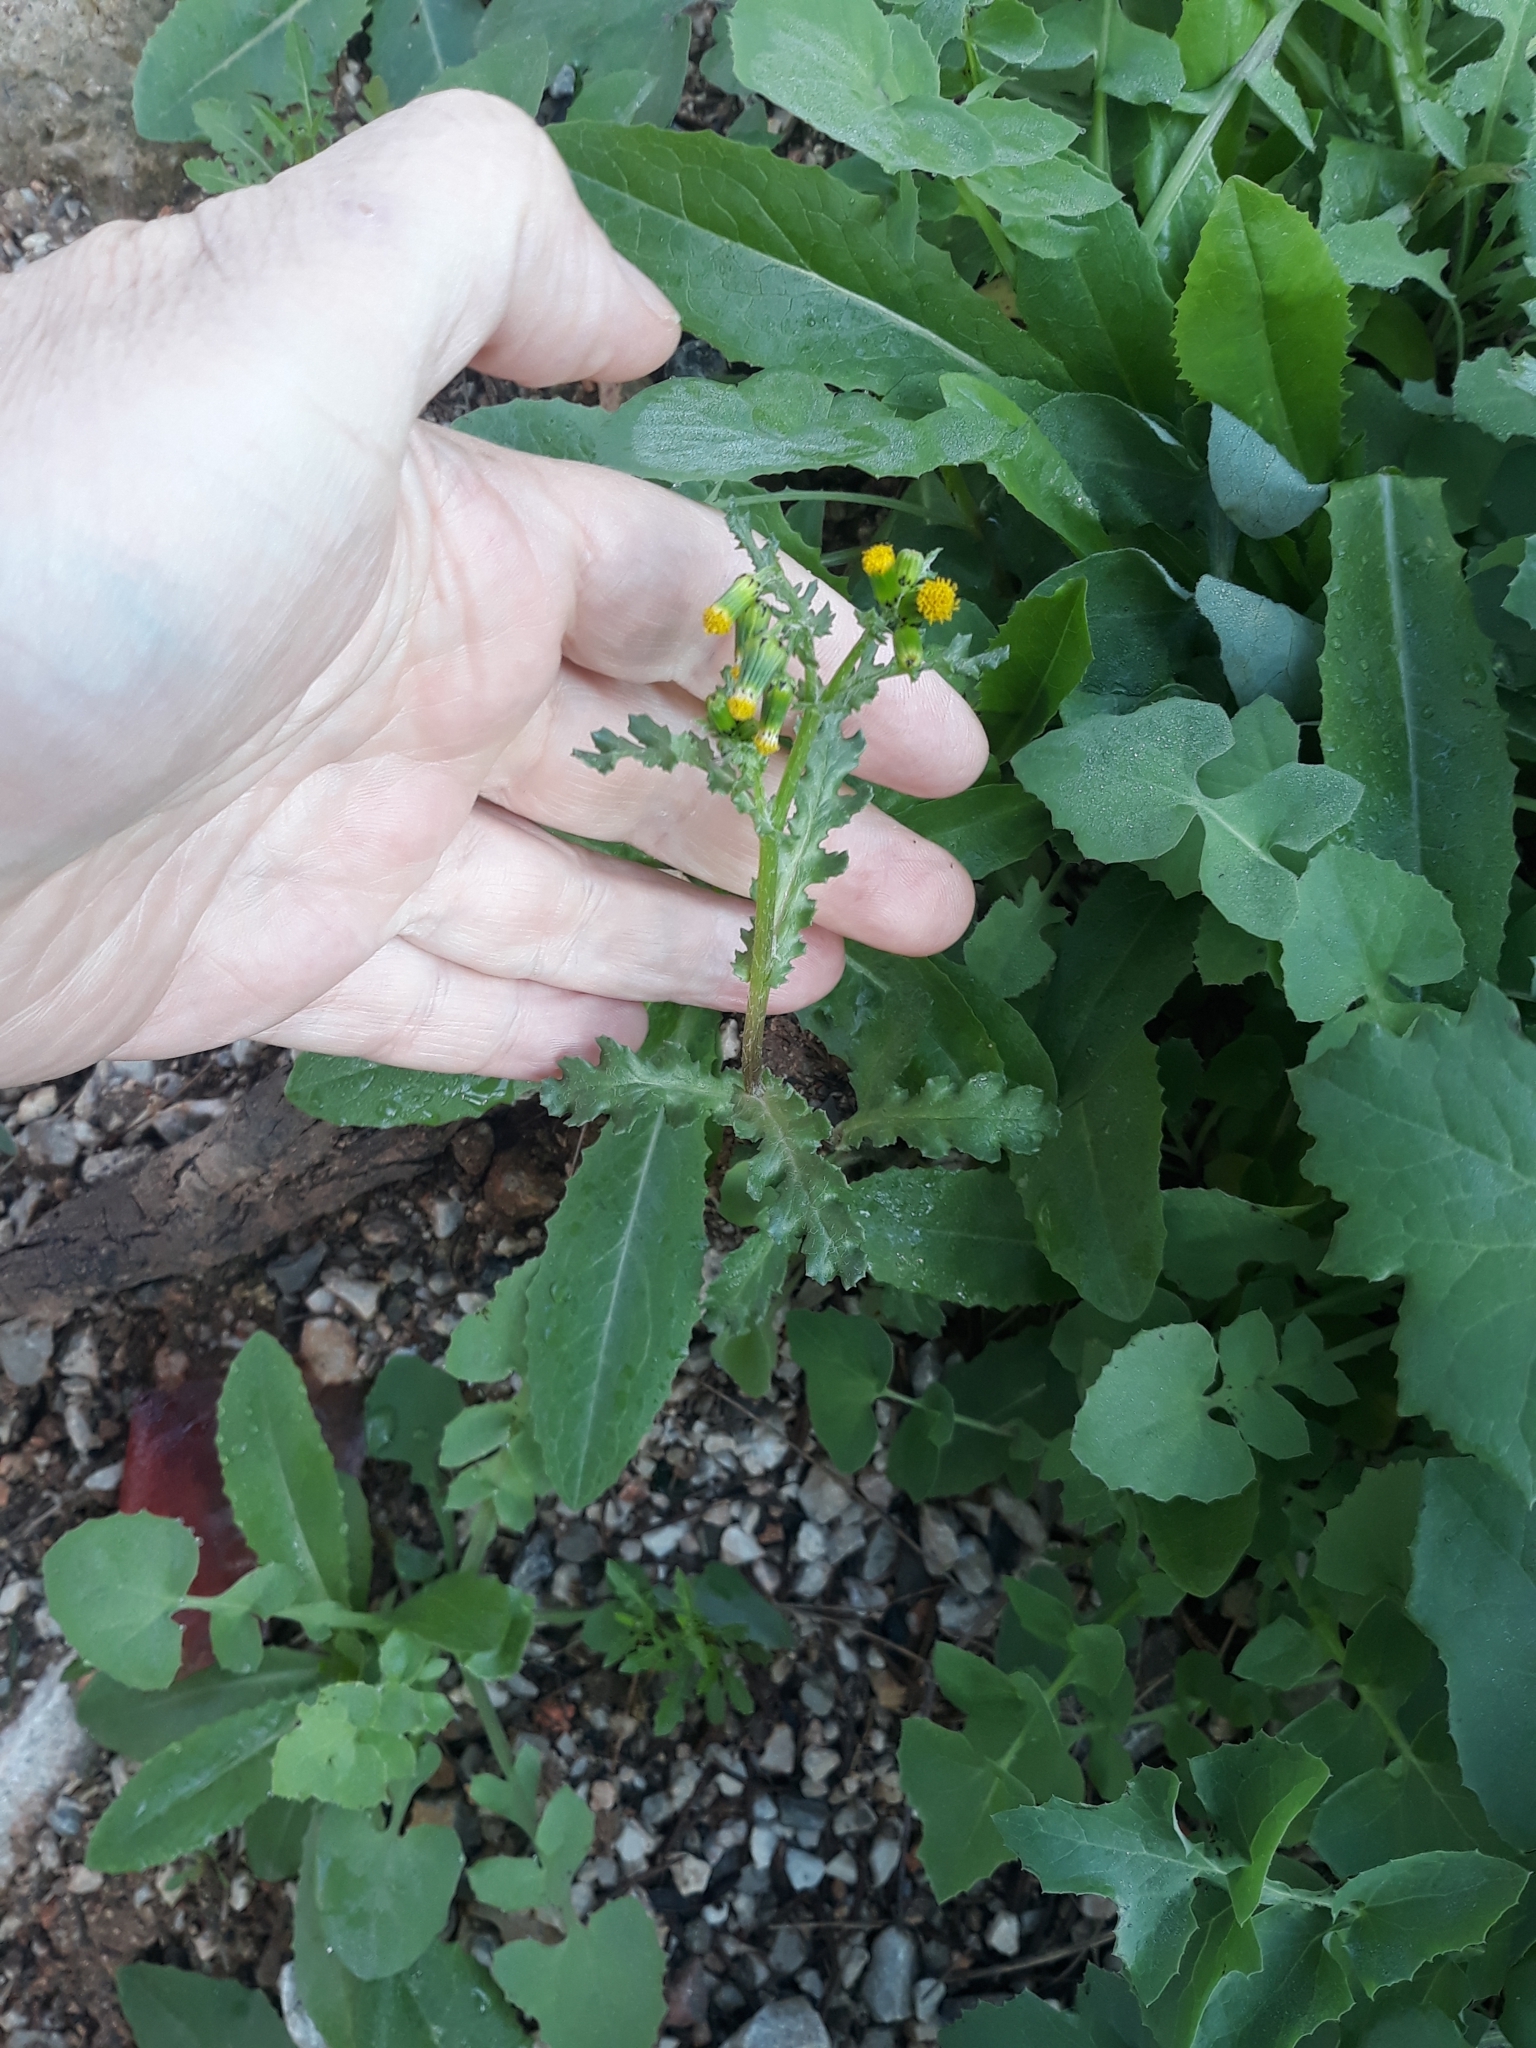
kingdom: Plantae
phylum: Tracheophyta
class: Magnoliopsida
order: Asterales
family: Asteraceae
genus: Senecio
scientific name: Senecio vulgaris
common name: Old-man-in-the-spring
